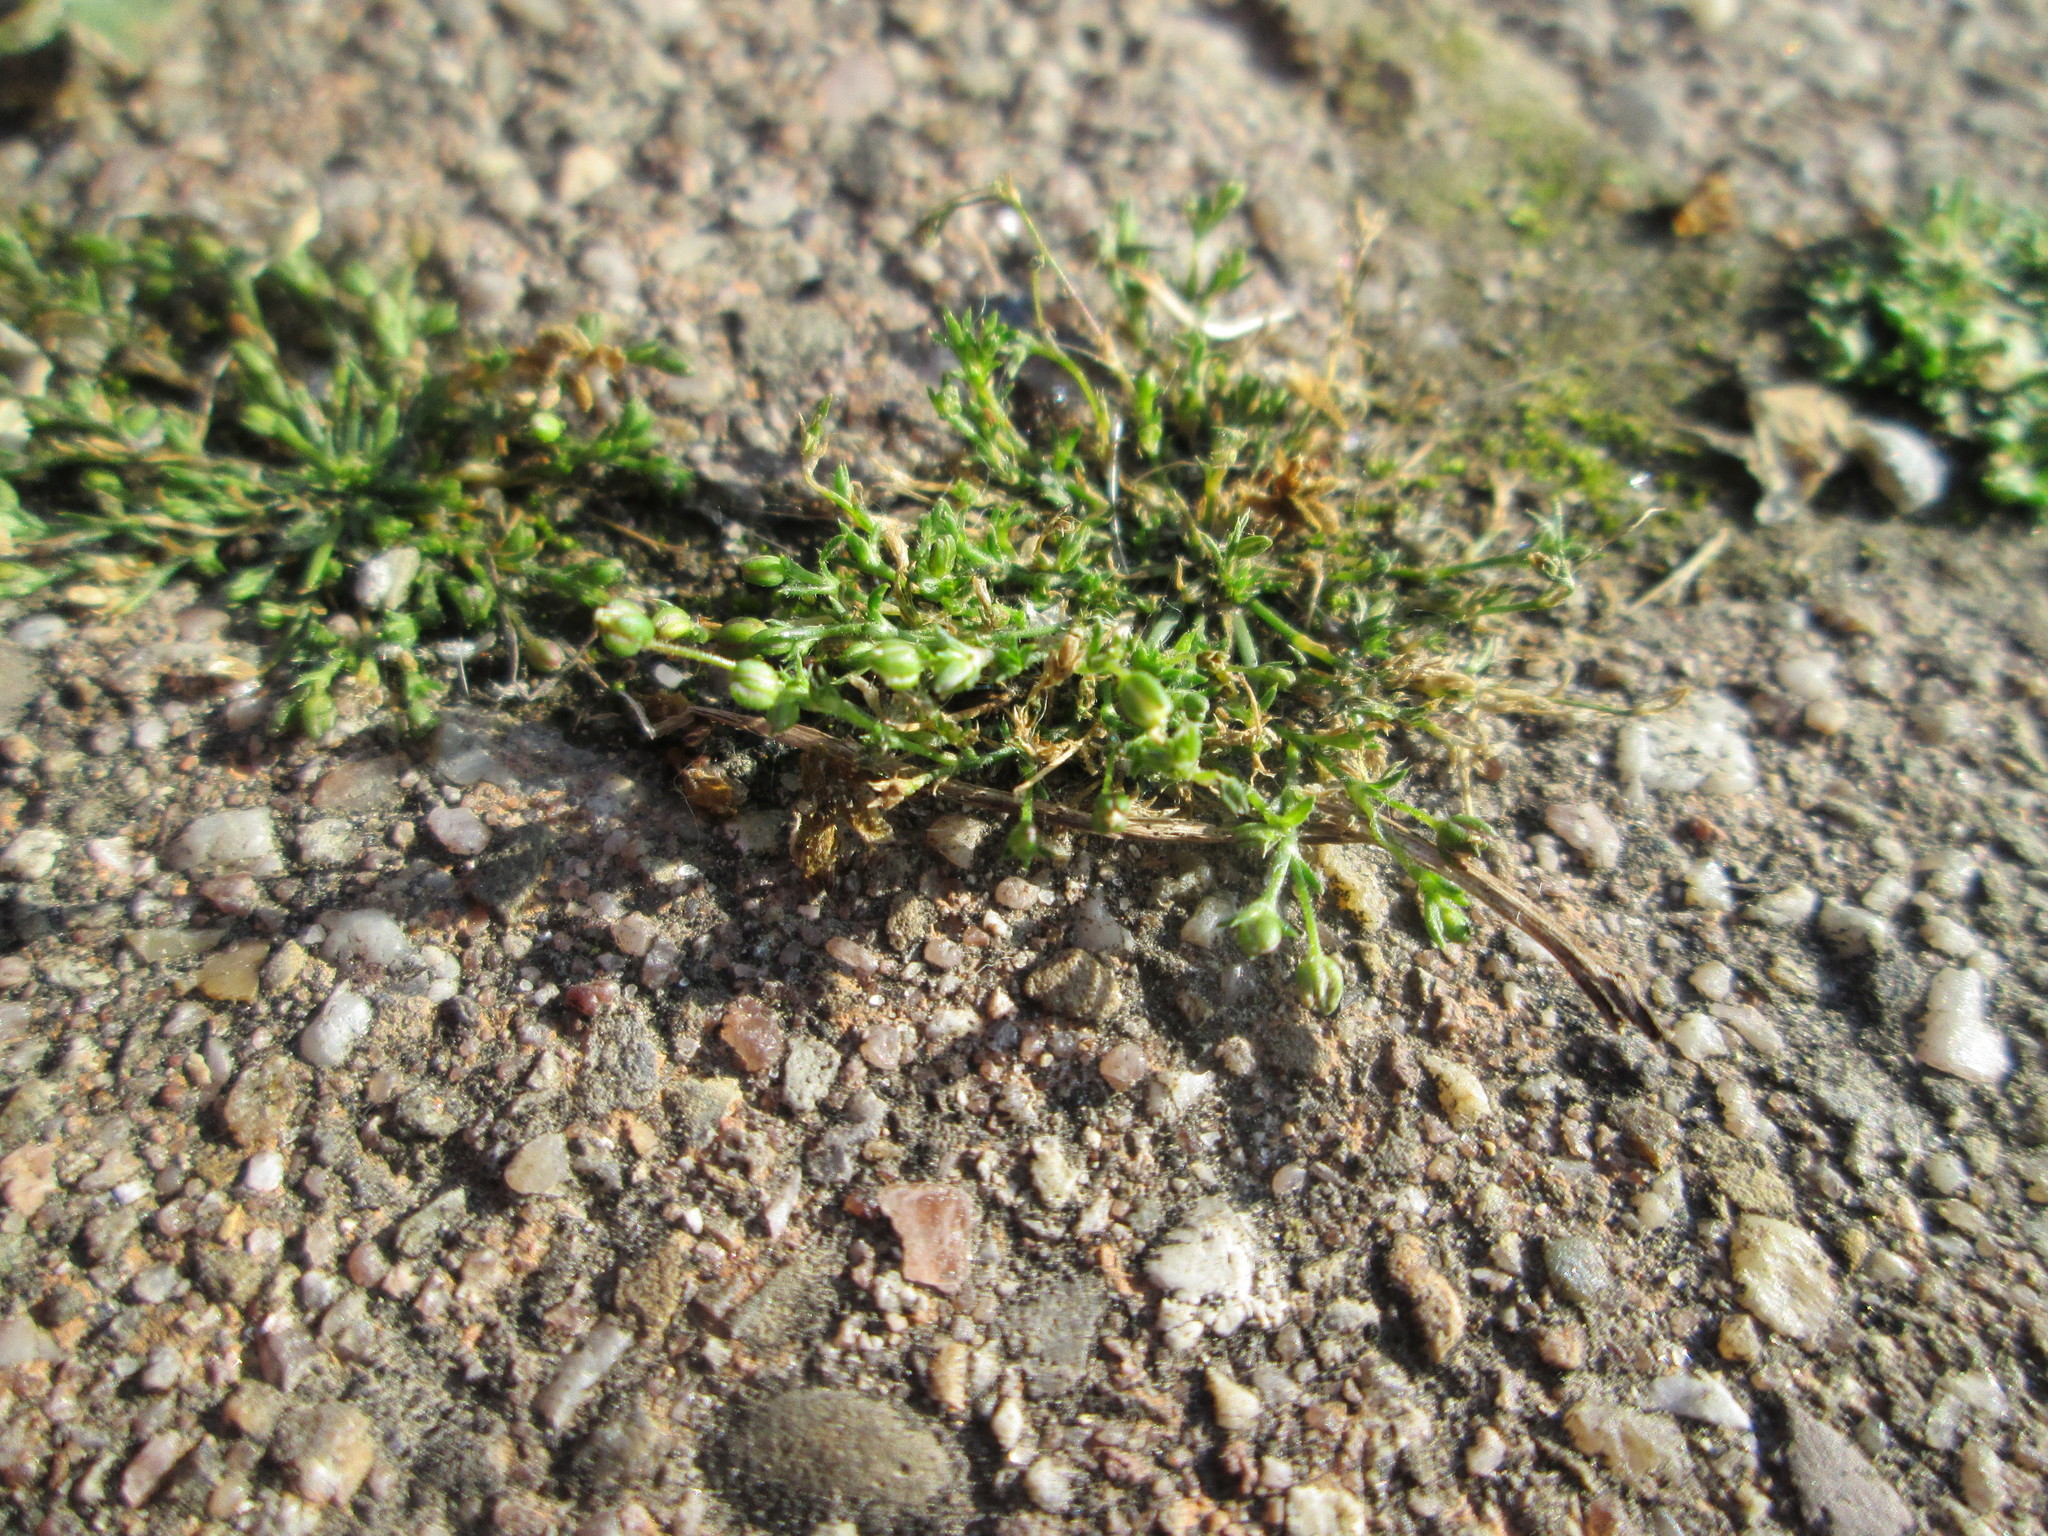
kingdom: Plantae
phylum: Tracheophyta
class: Magnoliopsida
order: Caryophyllales
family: Caryophyllaceae
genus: Sagina
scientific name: Sagina procumbens
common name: Procumbent pearlwort
